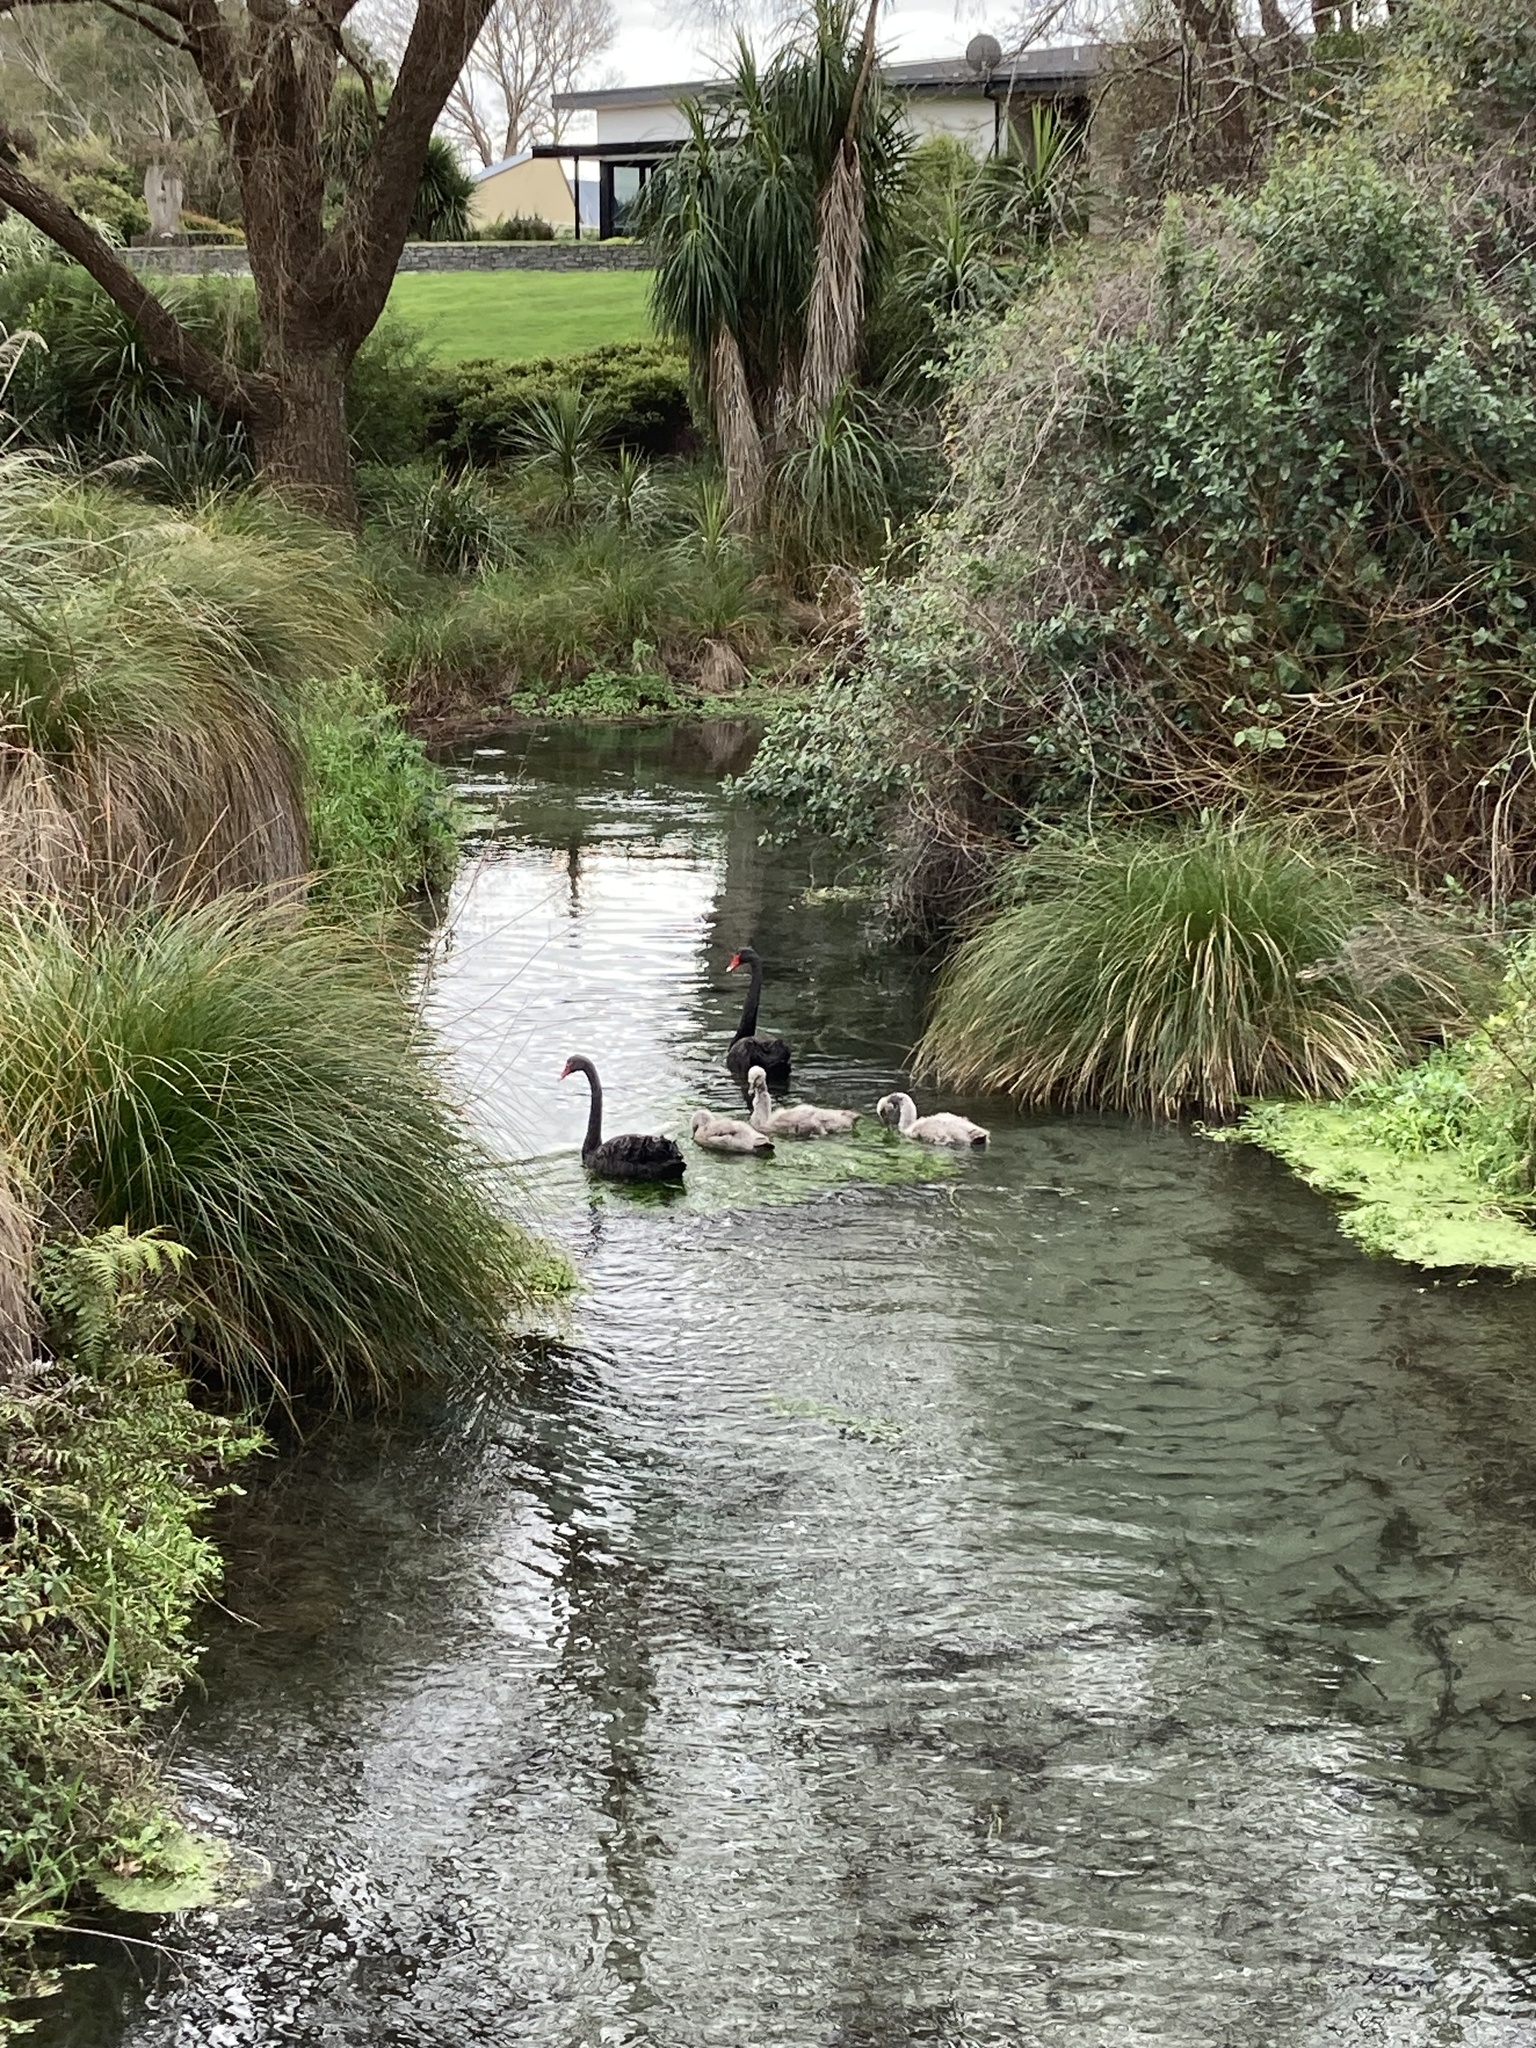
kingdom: Animalia
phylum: Chordata
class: Aves
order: Anseriformes
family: Anatidae
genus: Cygnus
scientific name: Cygnus atratus
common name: Black swan
